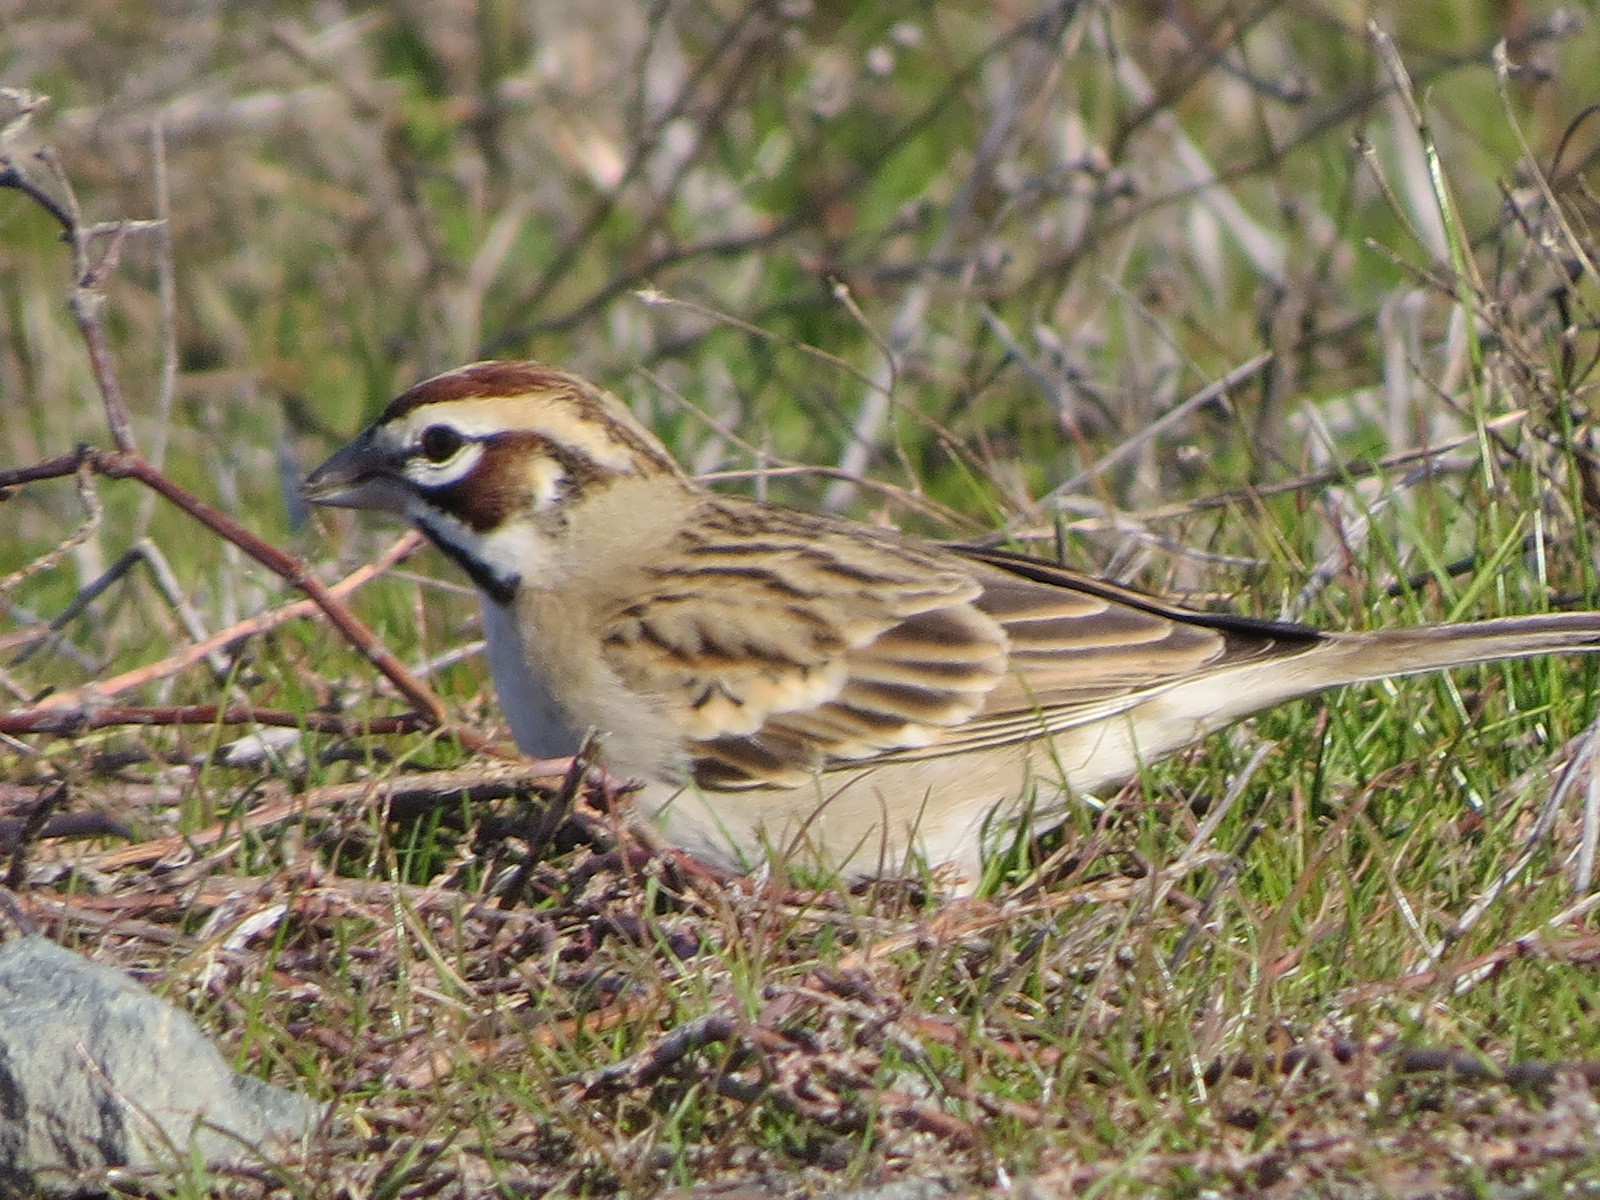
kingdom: Animalia
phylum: Chordata
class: Aves
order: Passeriformes
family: Passerellidae
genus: Chondestes
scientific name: Chondestes grammacus
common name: Lark sparrow
